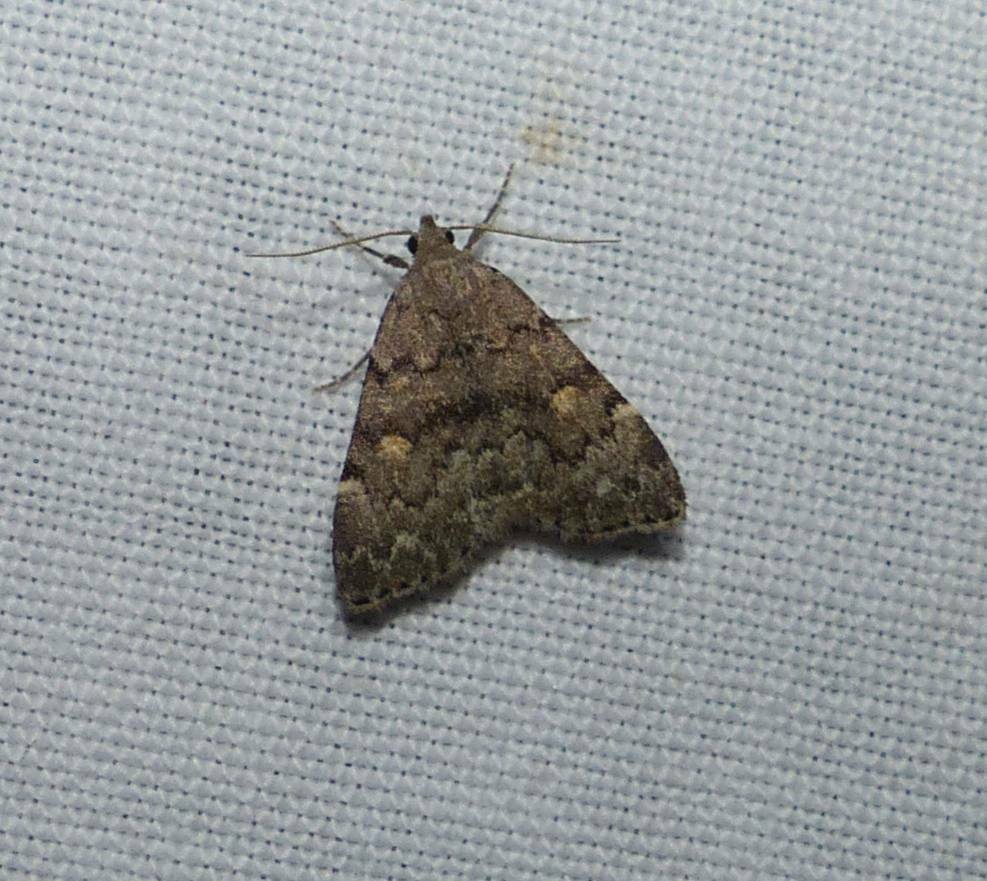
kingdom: Animalia
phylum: Arthropoda
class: Insecta
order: Lepidoptera
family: Erebidae
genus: Idia
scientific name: Idia aemula
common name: Common idia moth
